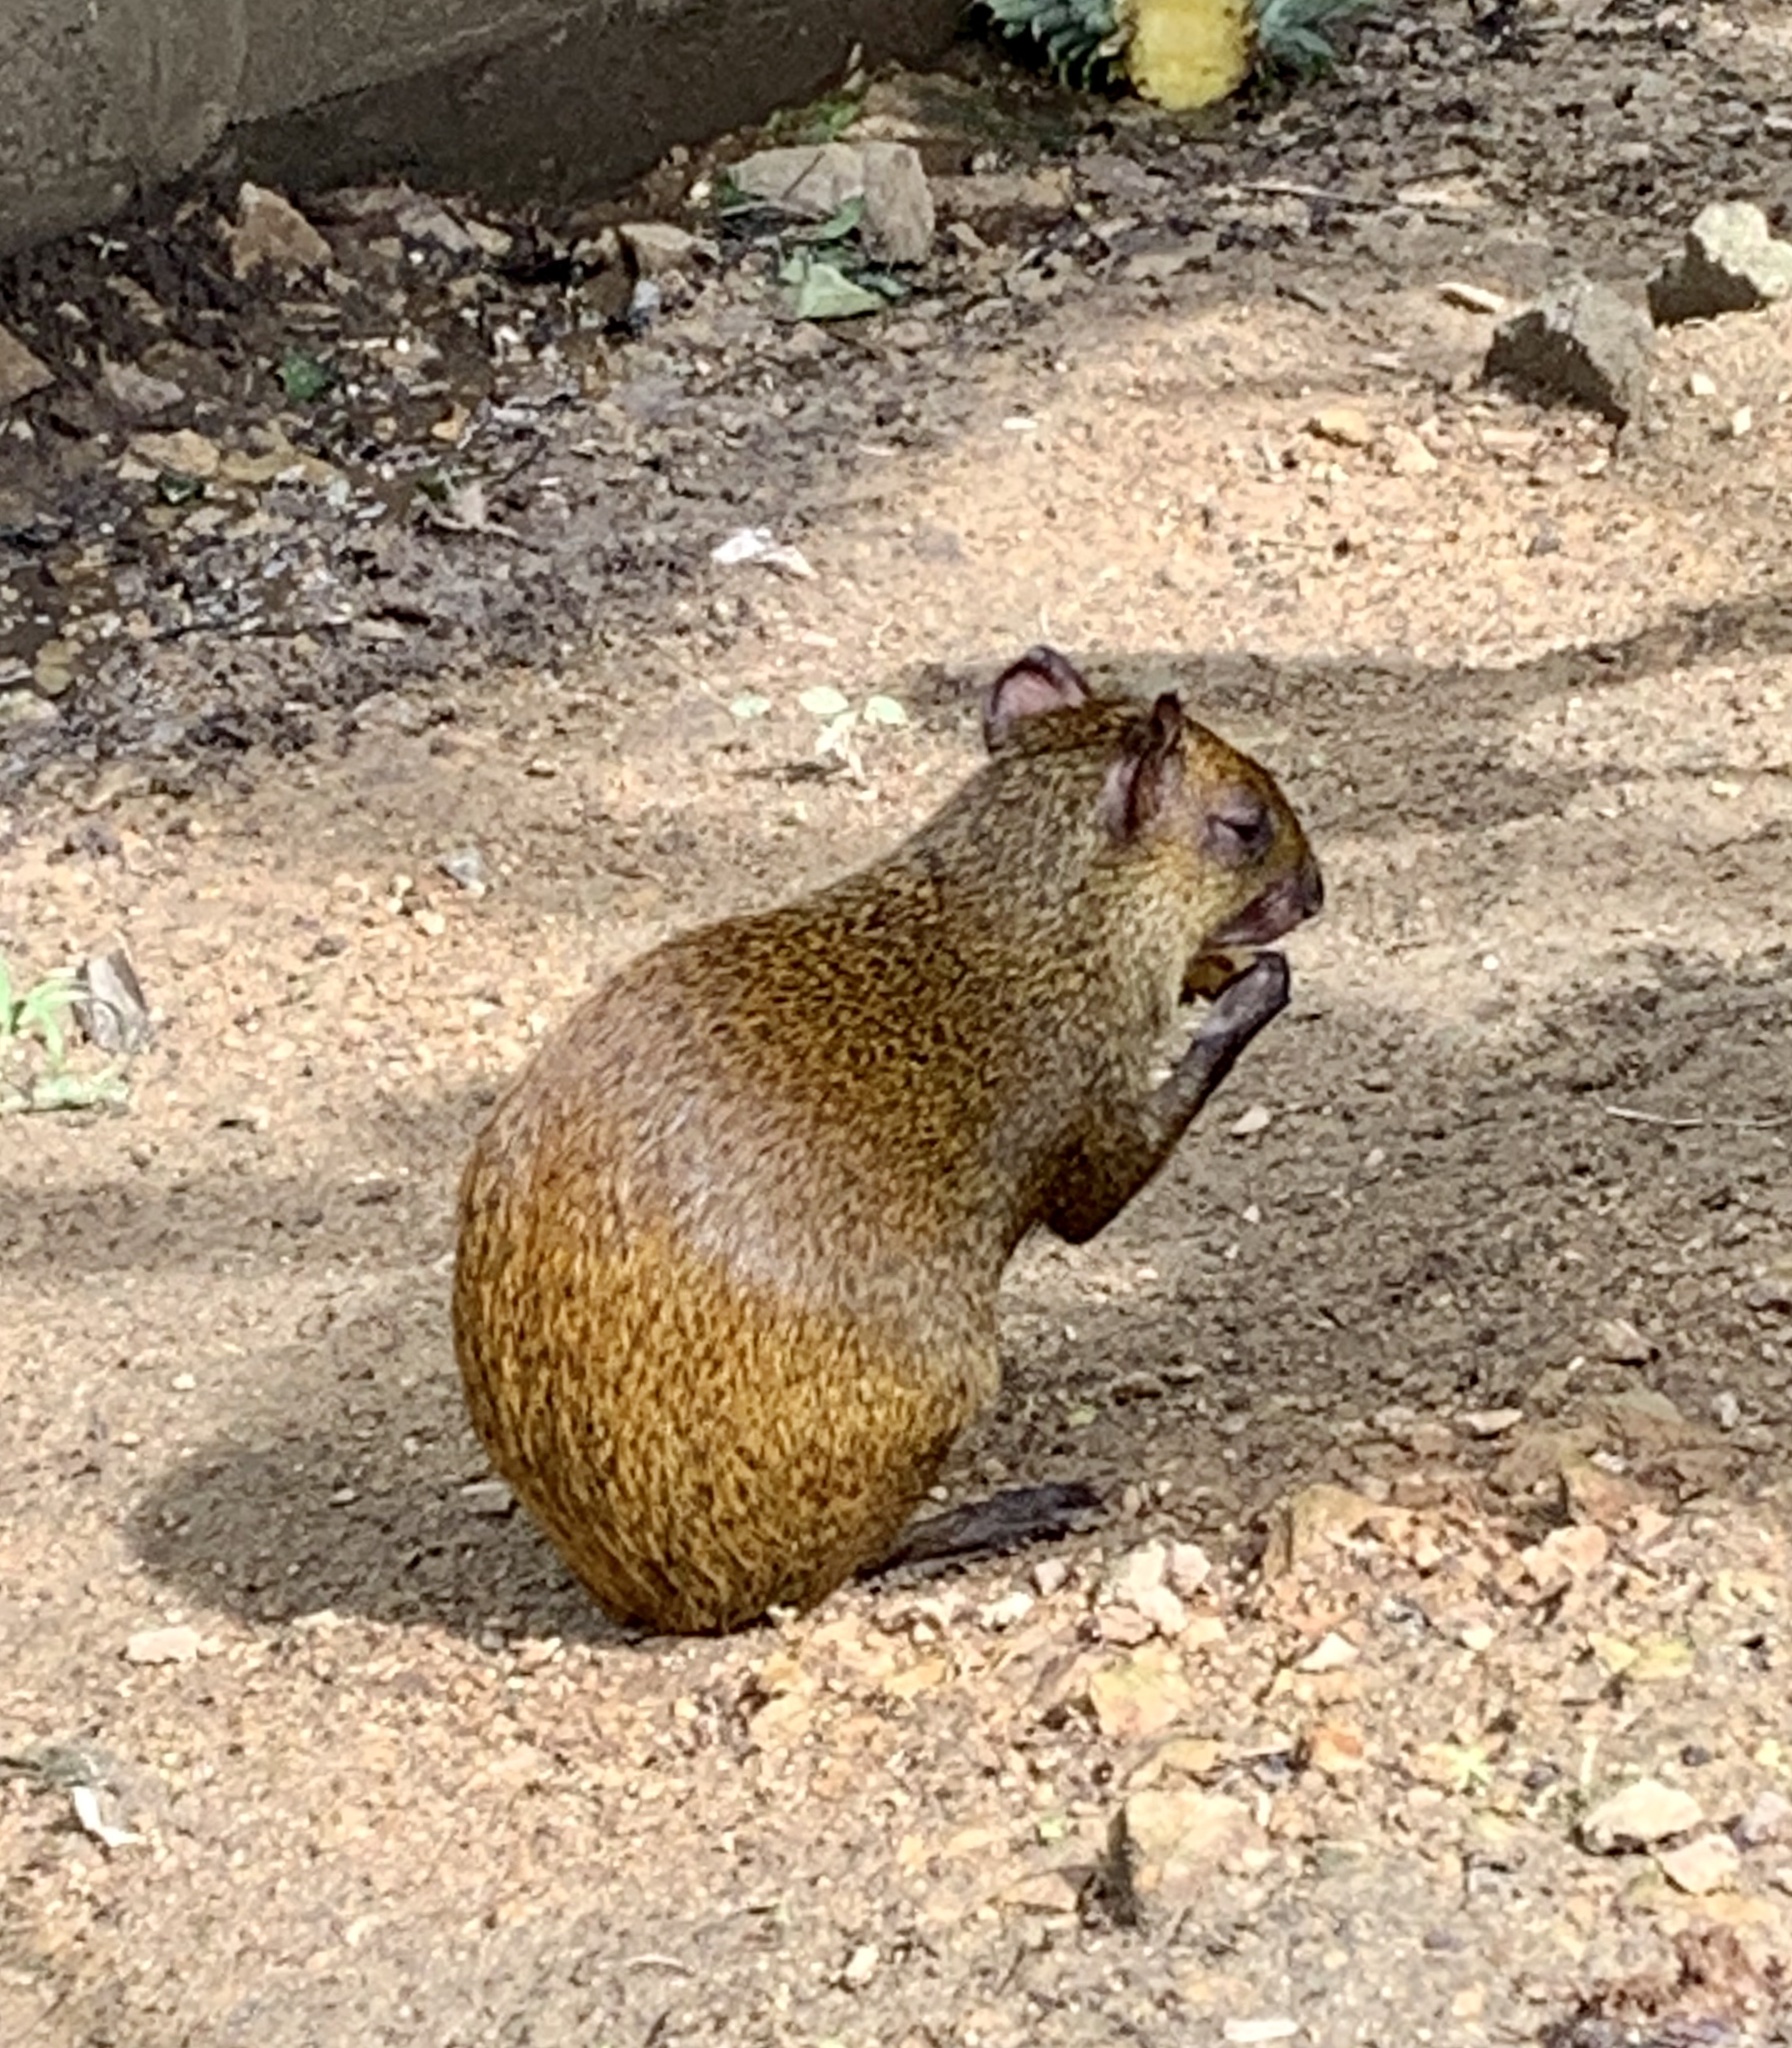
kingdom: Animalia
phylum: Chordata
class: Mammalia
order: Rodentia
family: Dasyproctidae
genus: Dasyprocta
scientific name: Dasyprocta ruatanica
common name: Roatán island agouti
